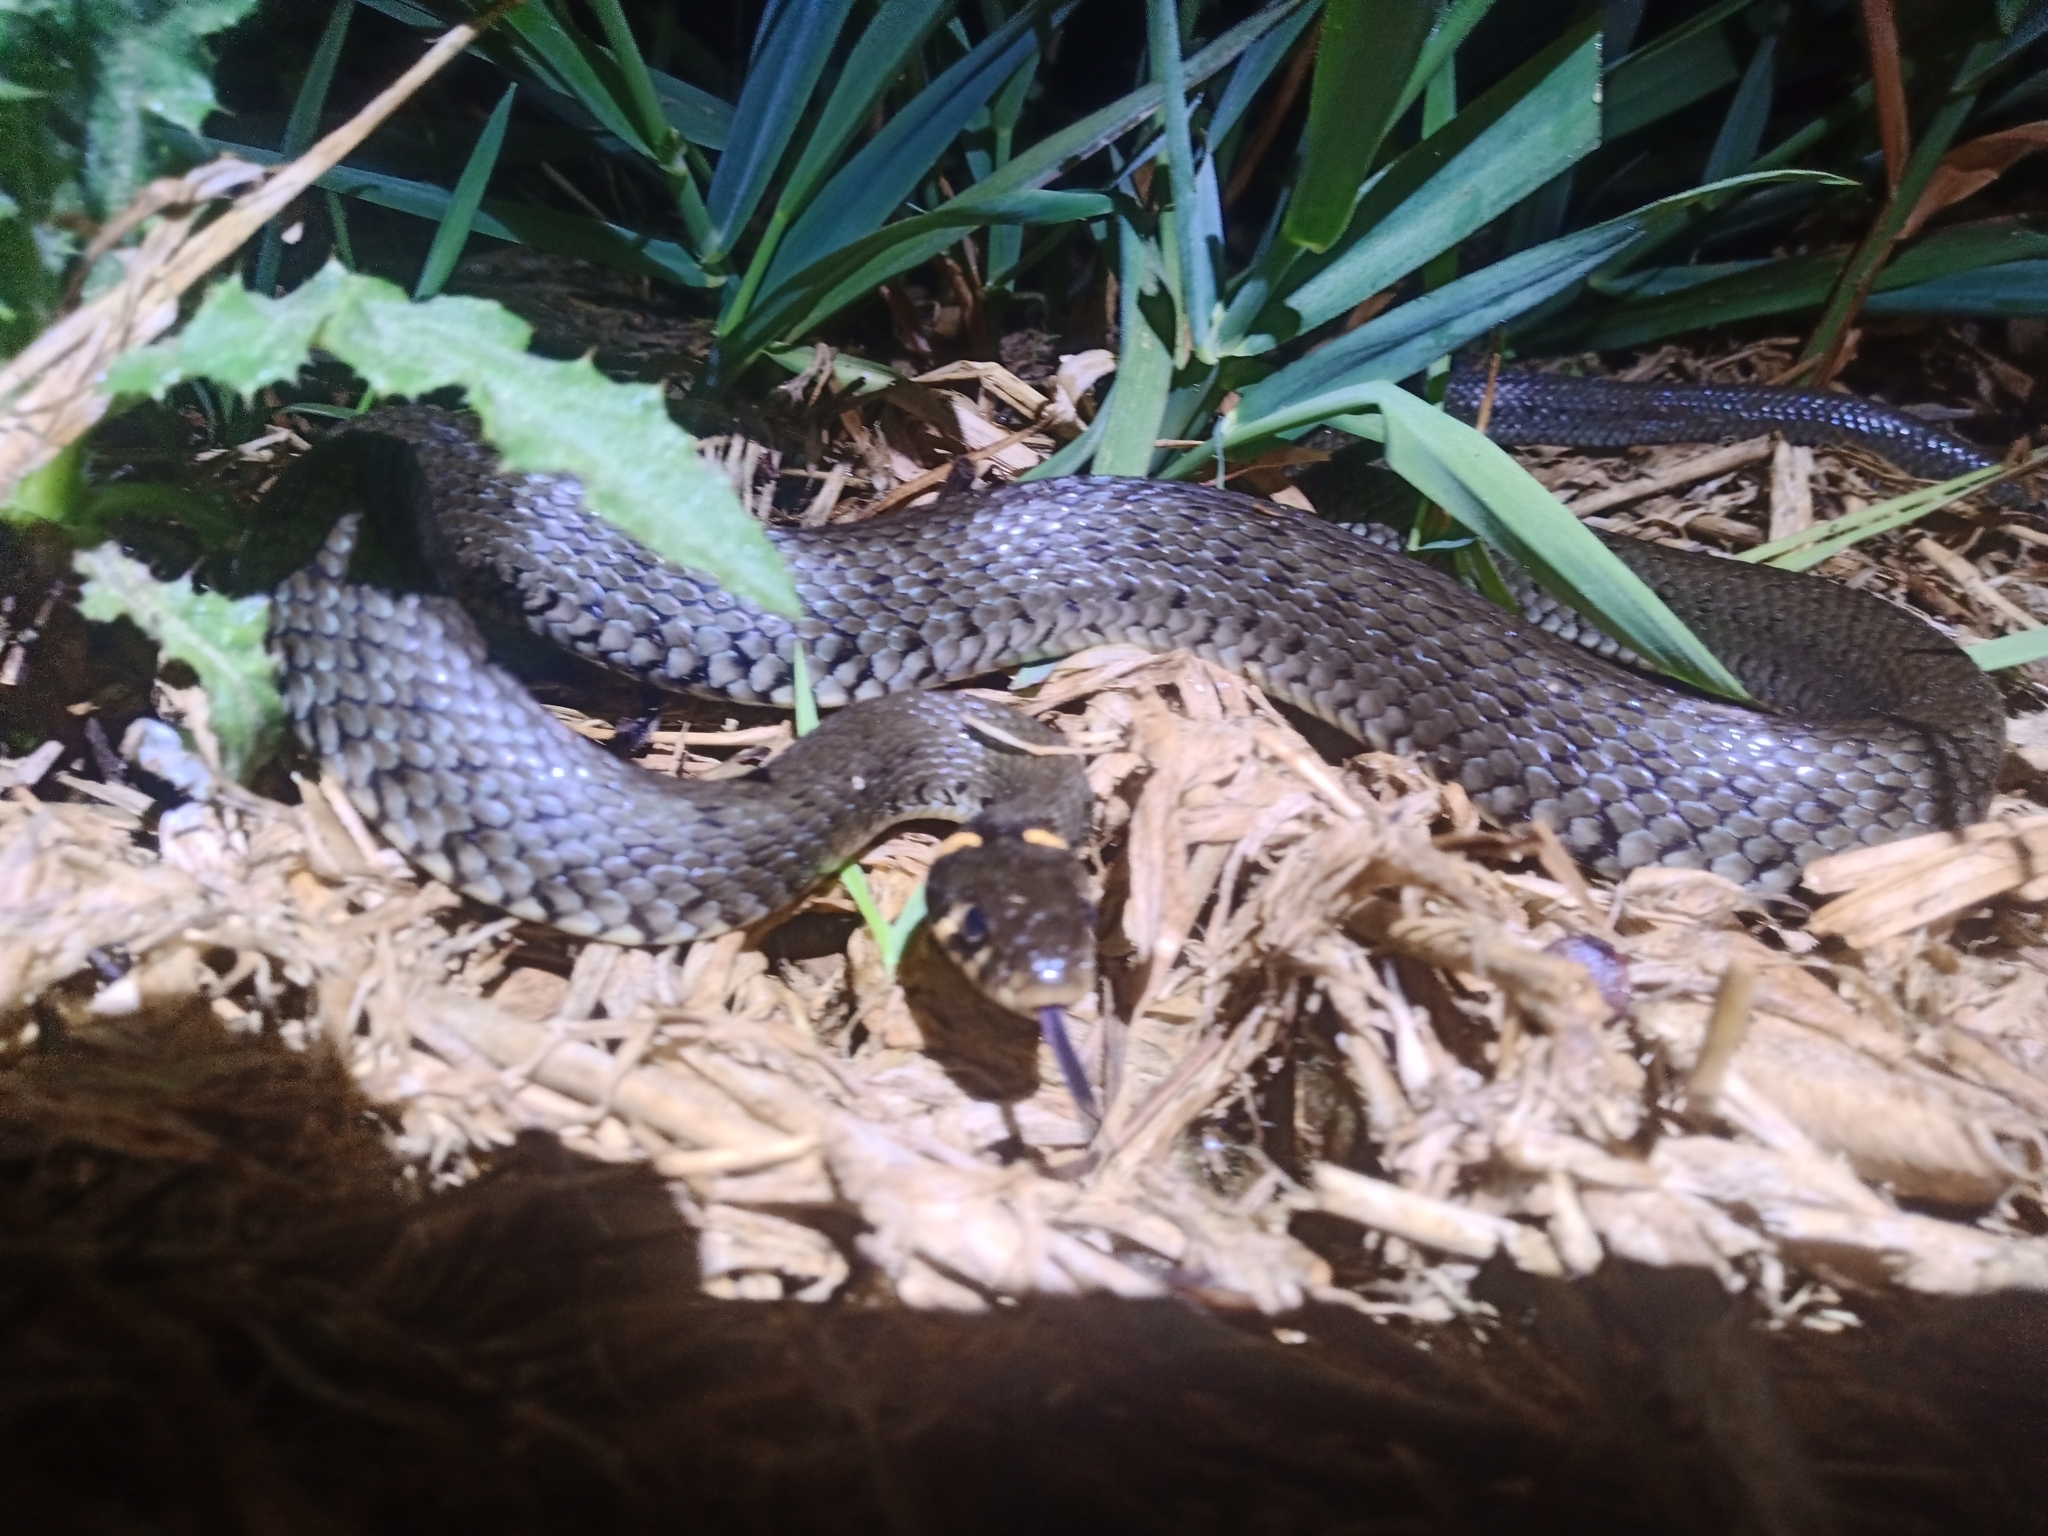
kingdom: Animalia
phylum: Chordata
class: Squamata
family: Colubridae
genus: Natrix
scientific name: Natrix natrix
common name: Grass snake
